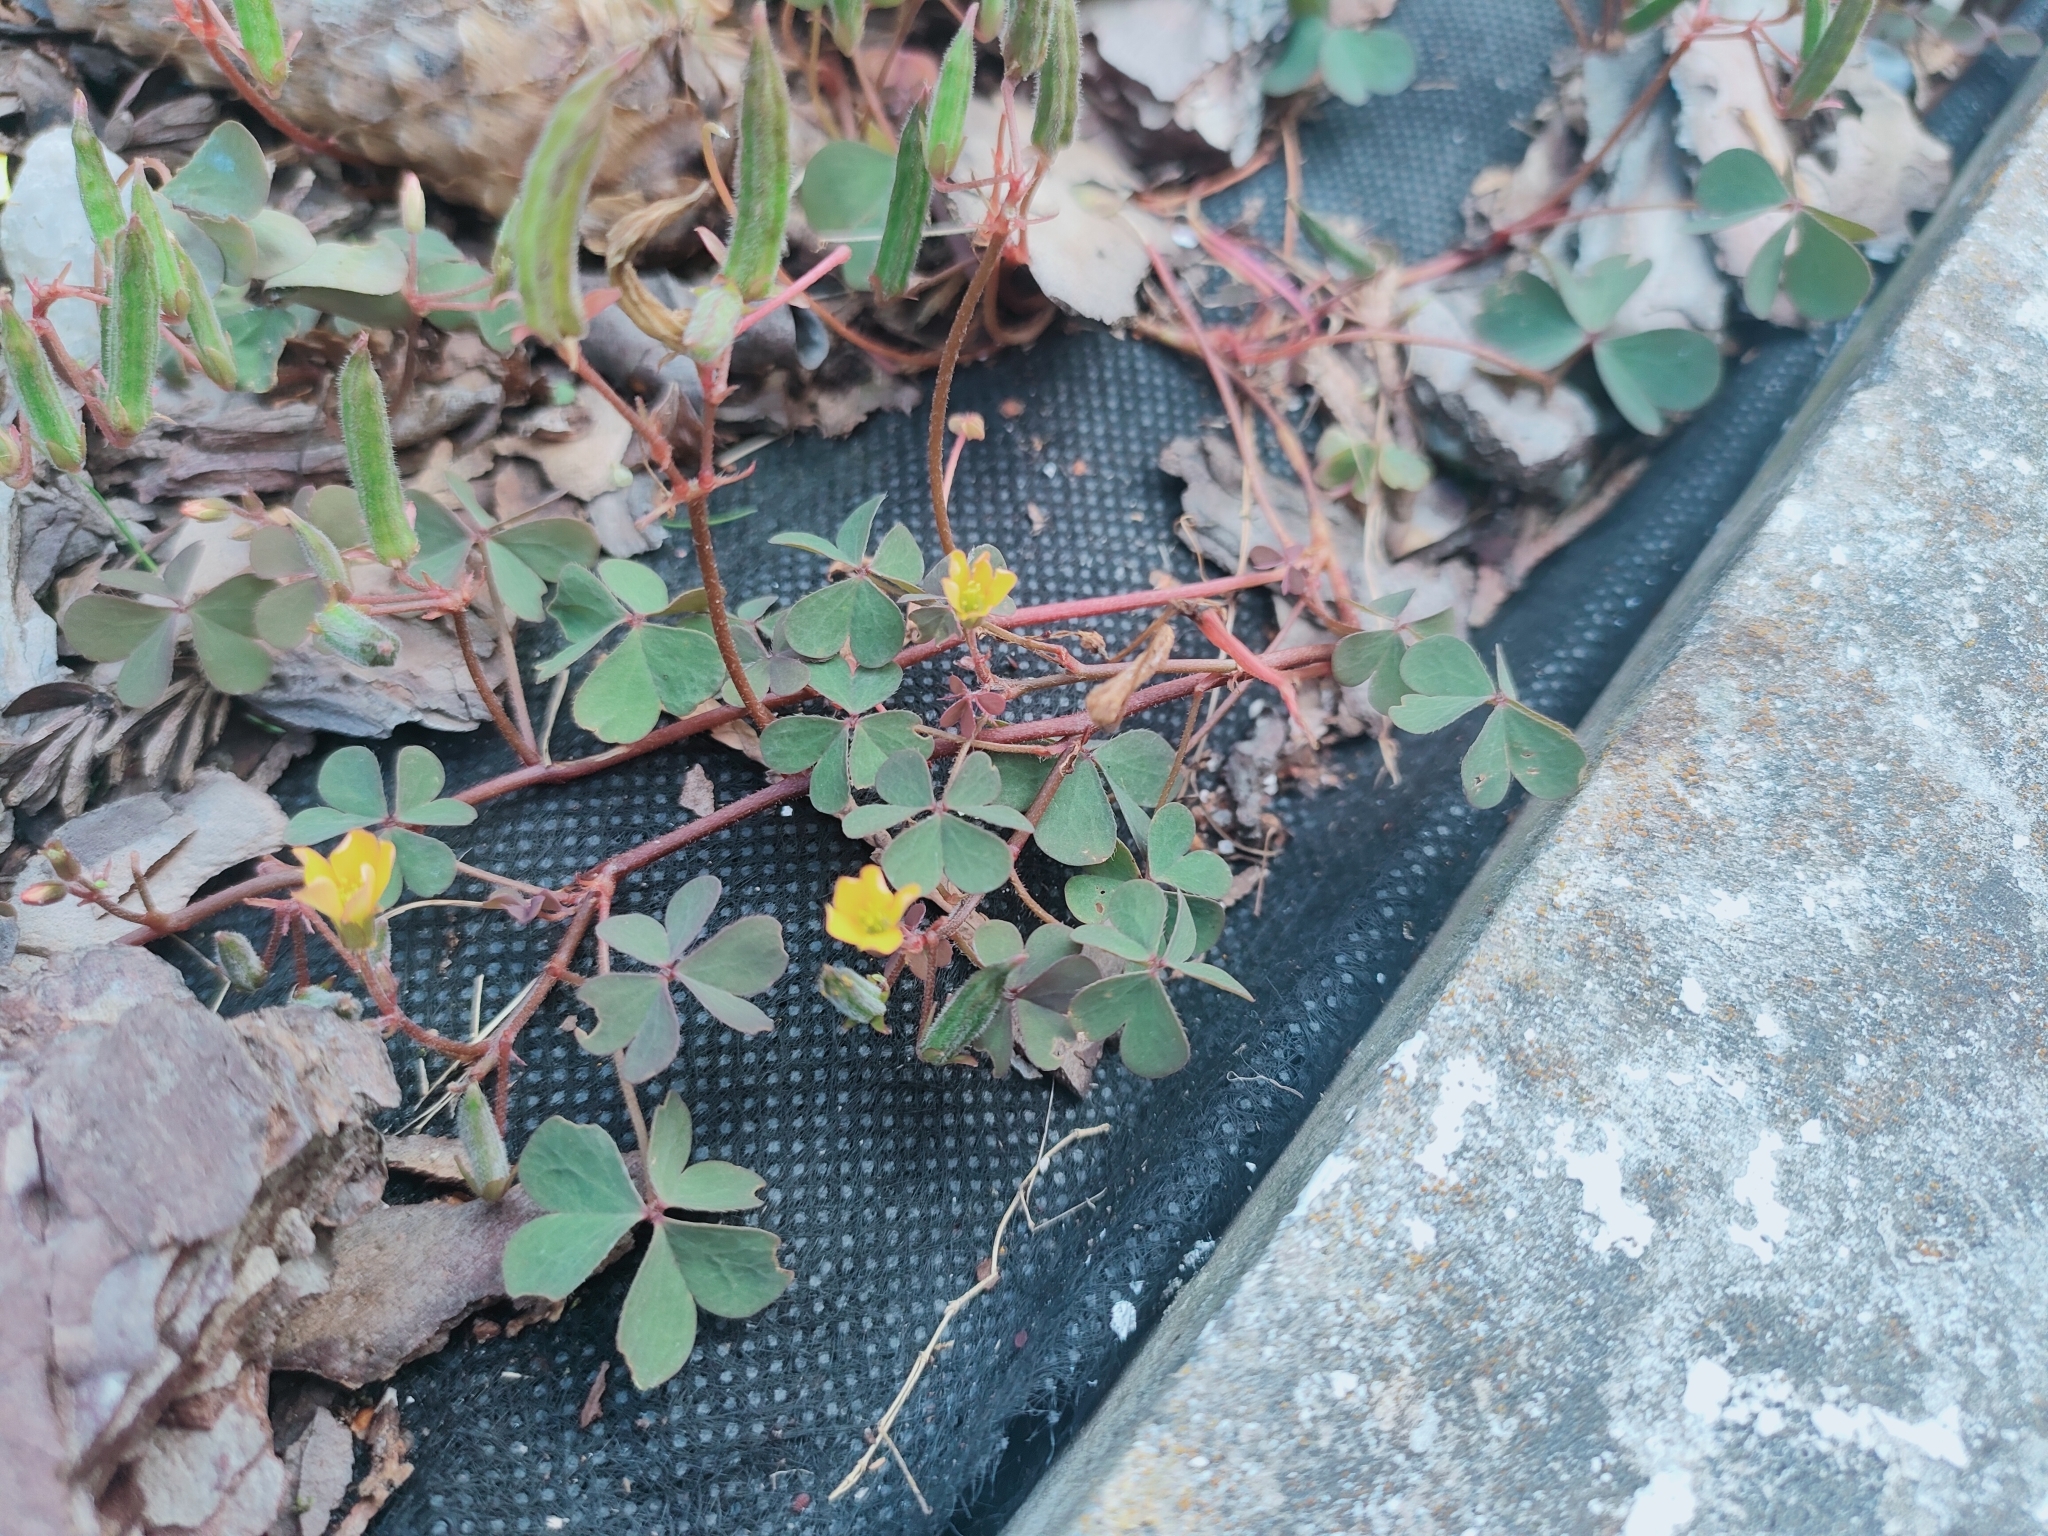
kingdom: Plantae
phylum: Tracheophyta
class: Magnoliopsida
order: Oxalidales
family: Oxalidaceae
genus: Oxalis
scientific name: Oxalis corniculata
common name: Procumbent yellow-sorrel
